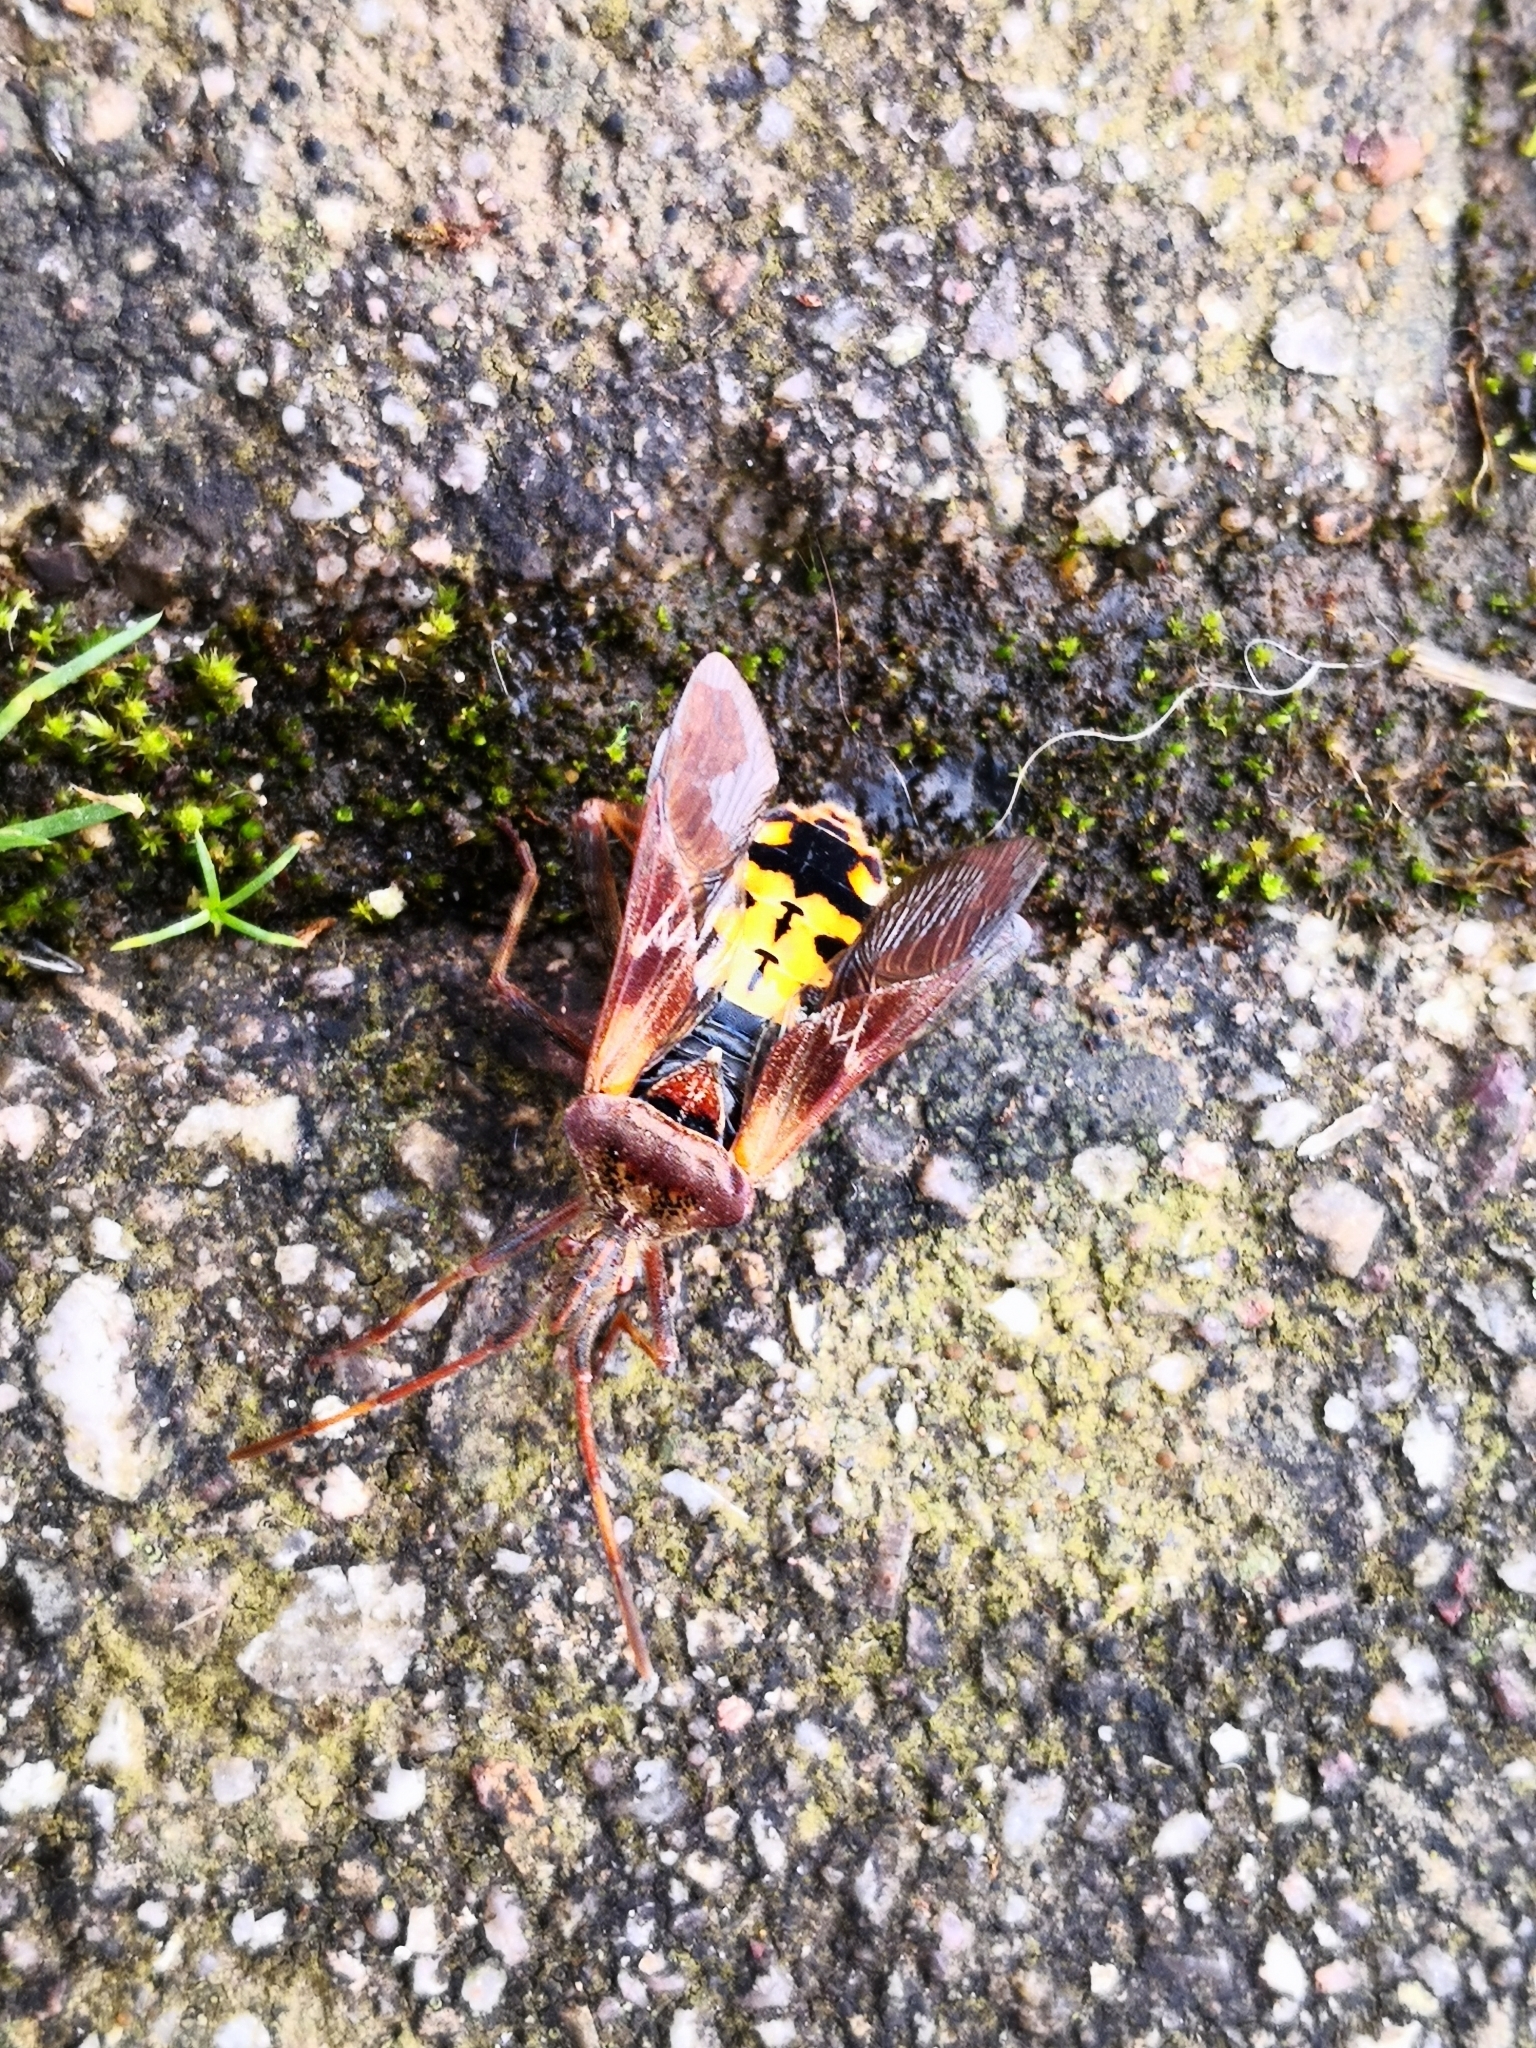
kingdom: Animalia
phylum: Arthropoda
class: Insecta
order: Hemiptera
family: Coreidae
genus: Leptoglossus
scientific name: Leptoglossus occidentalis
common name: Western conifer-seed bug
